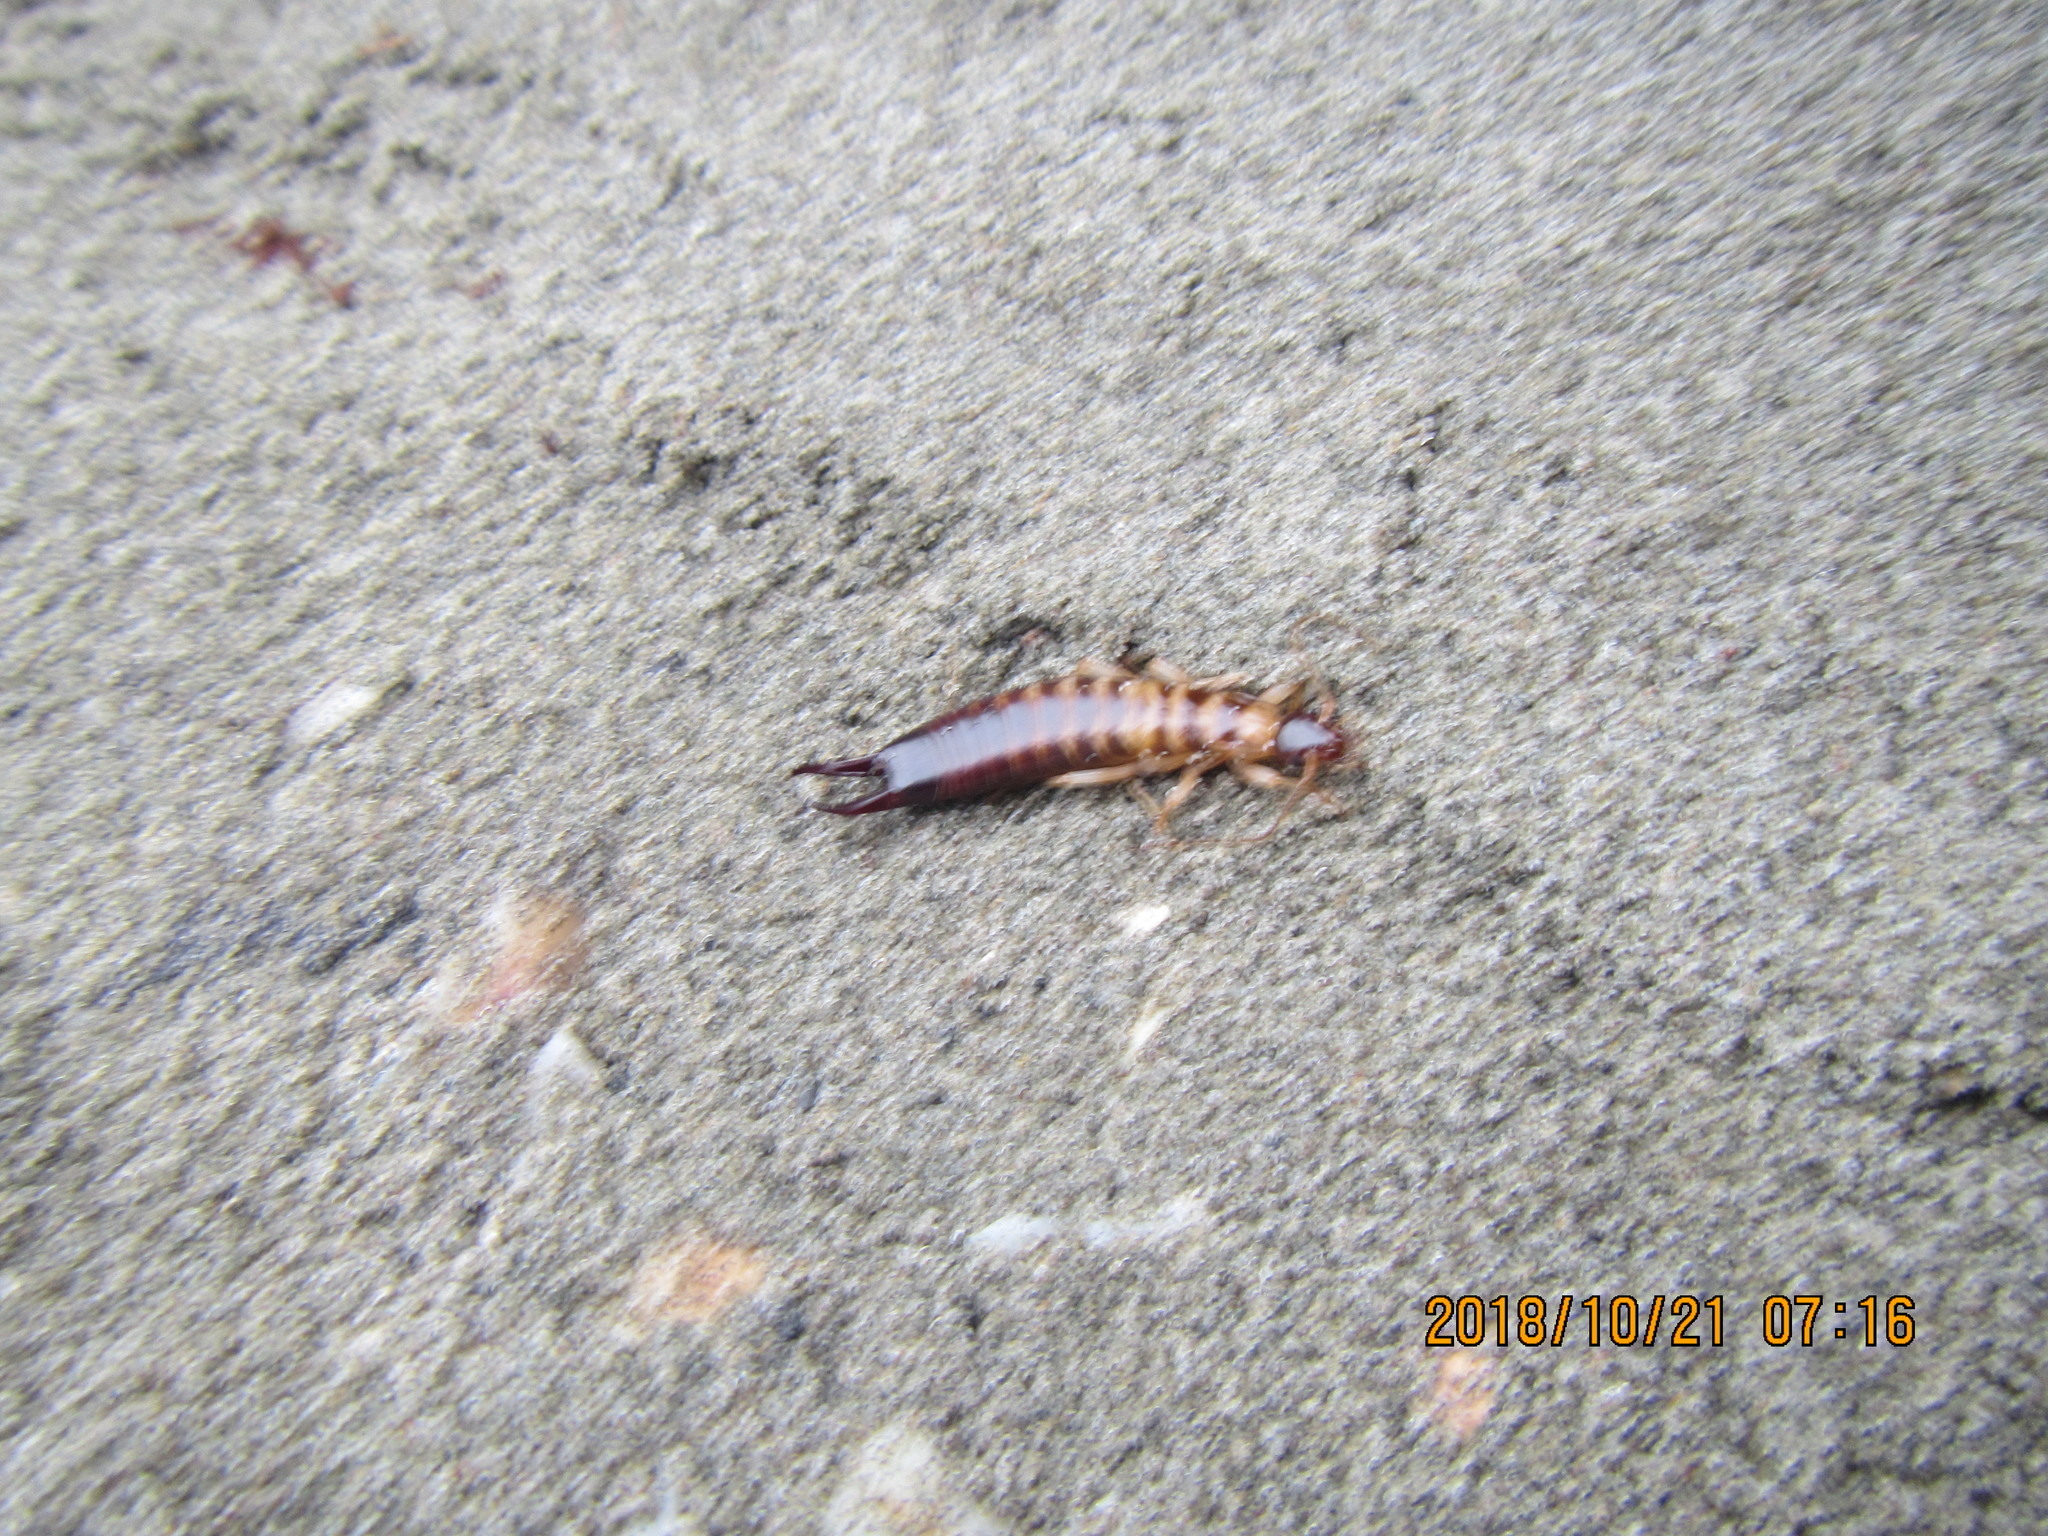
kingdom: Animalia
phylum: Arthropoda
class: Insecta
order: Dermaptera
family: Anisolabididae
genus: Anisolabis
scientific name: Anisolabis littorea
